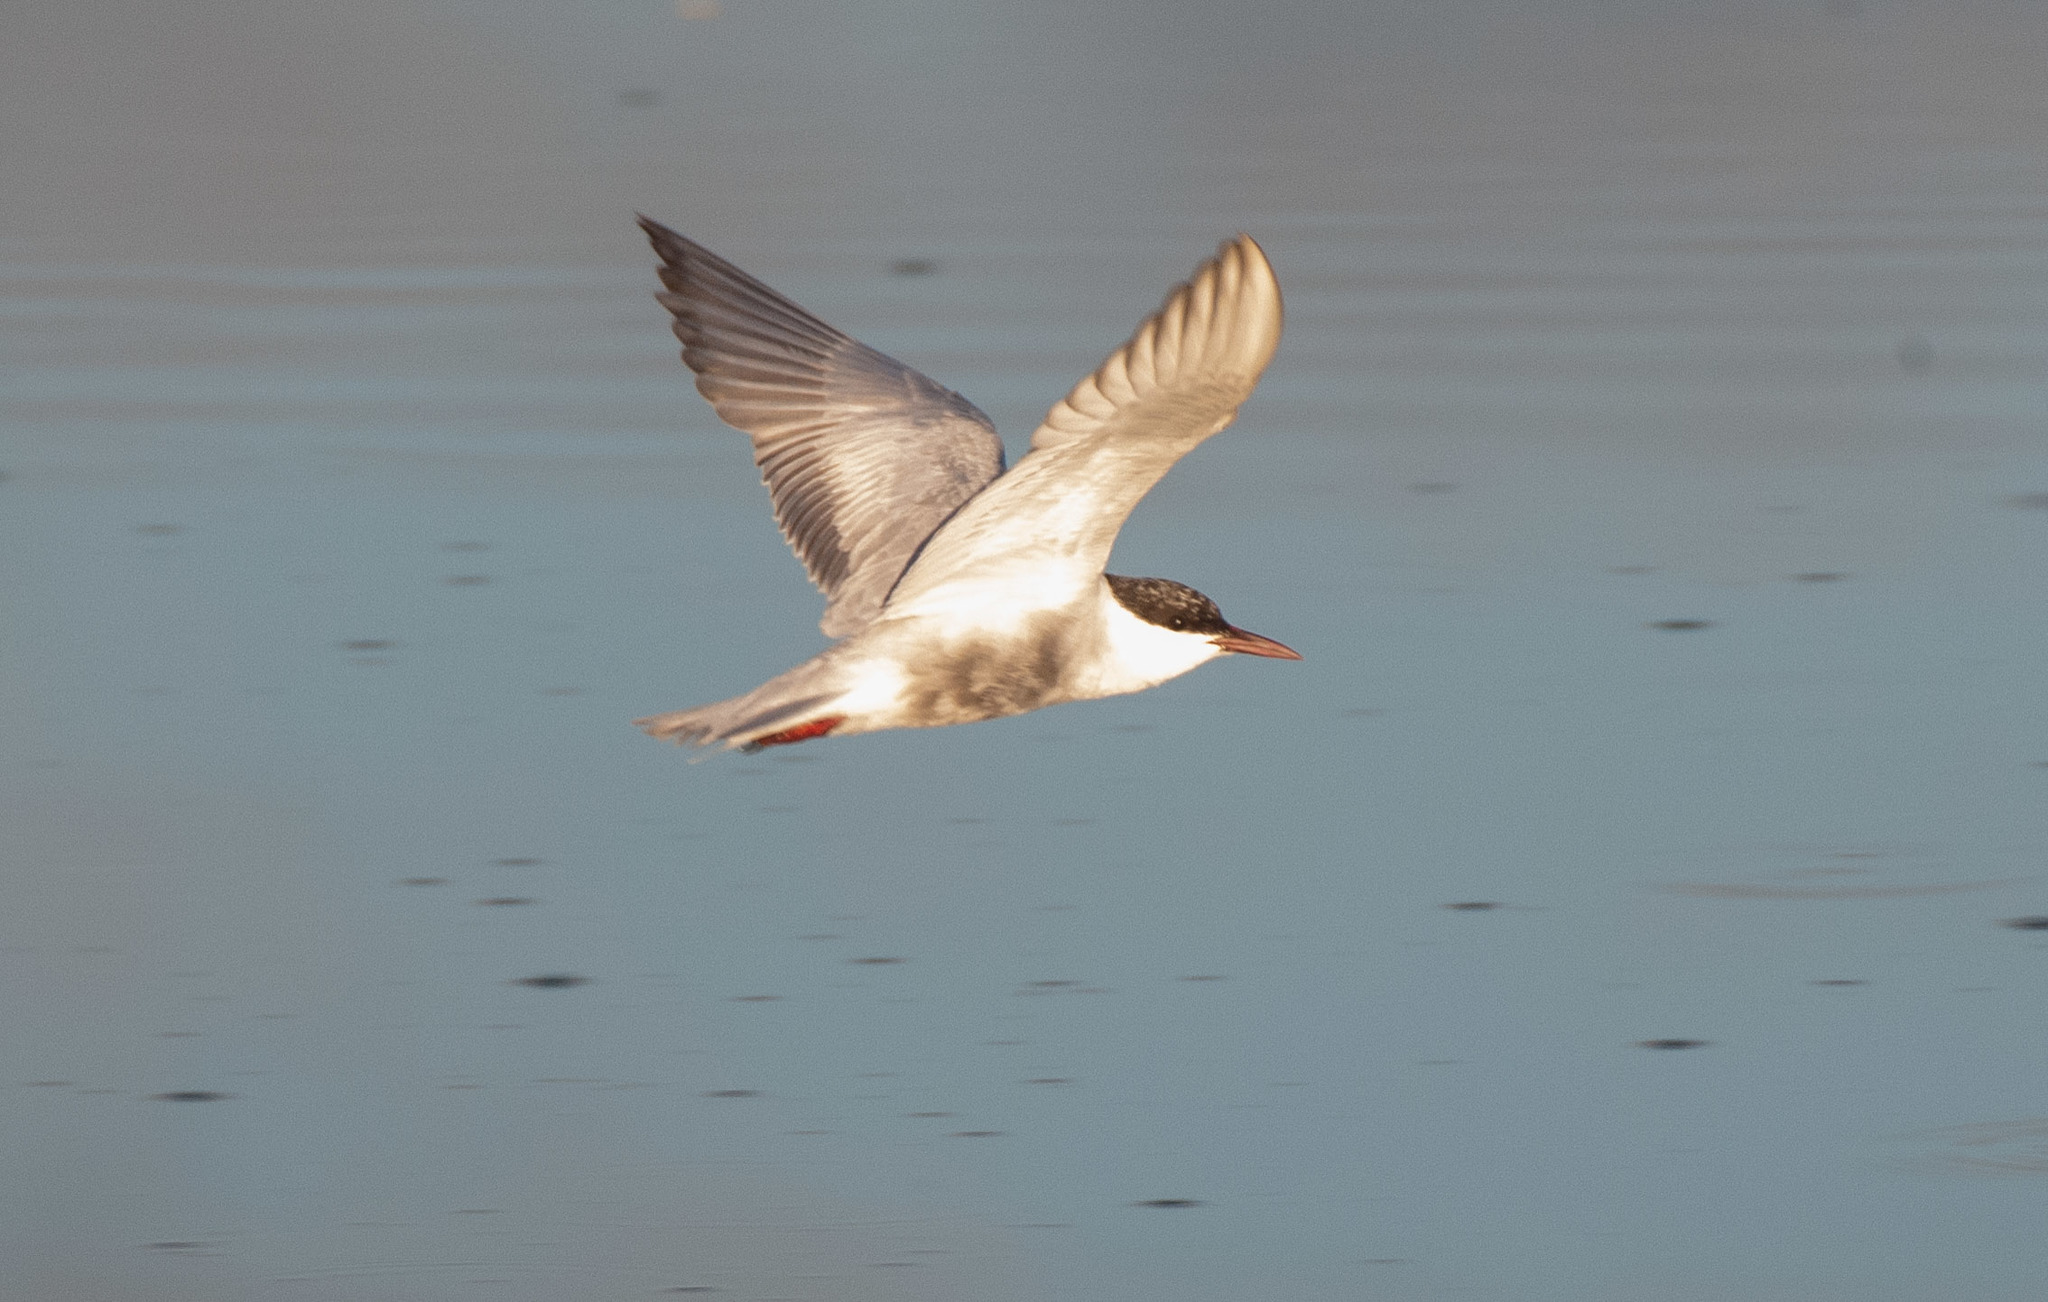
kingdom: Animalia
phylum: Chordata
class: Aves
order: Charadriiformes
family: Laridae
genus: Chlidonias
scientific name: Chlidonias hybrida
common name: Whiskered tern
